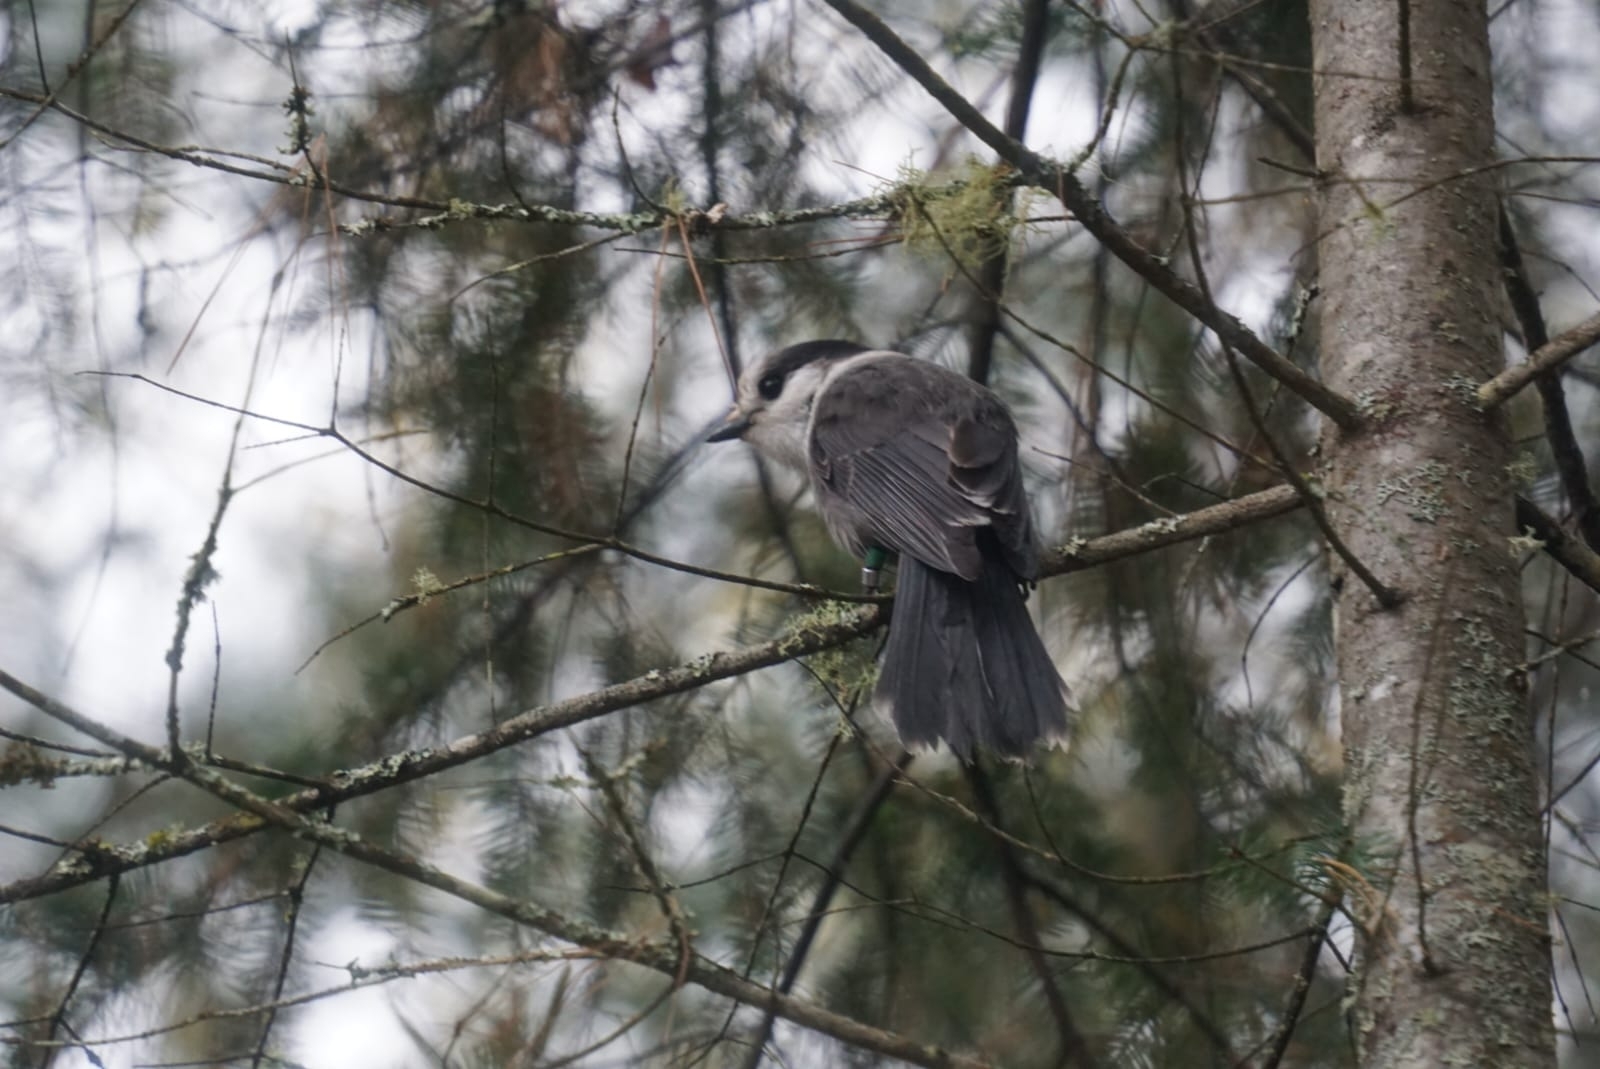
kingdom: Animalia
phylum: Chordata
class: Aves
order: Passeriformes
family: Corvidae
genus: Perisoreus
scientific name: Perisoreus canadensis
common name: Gray jay
